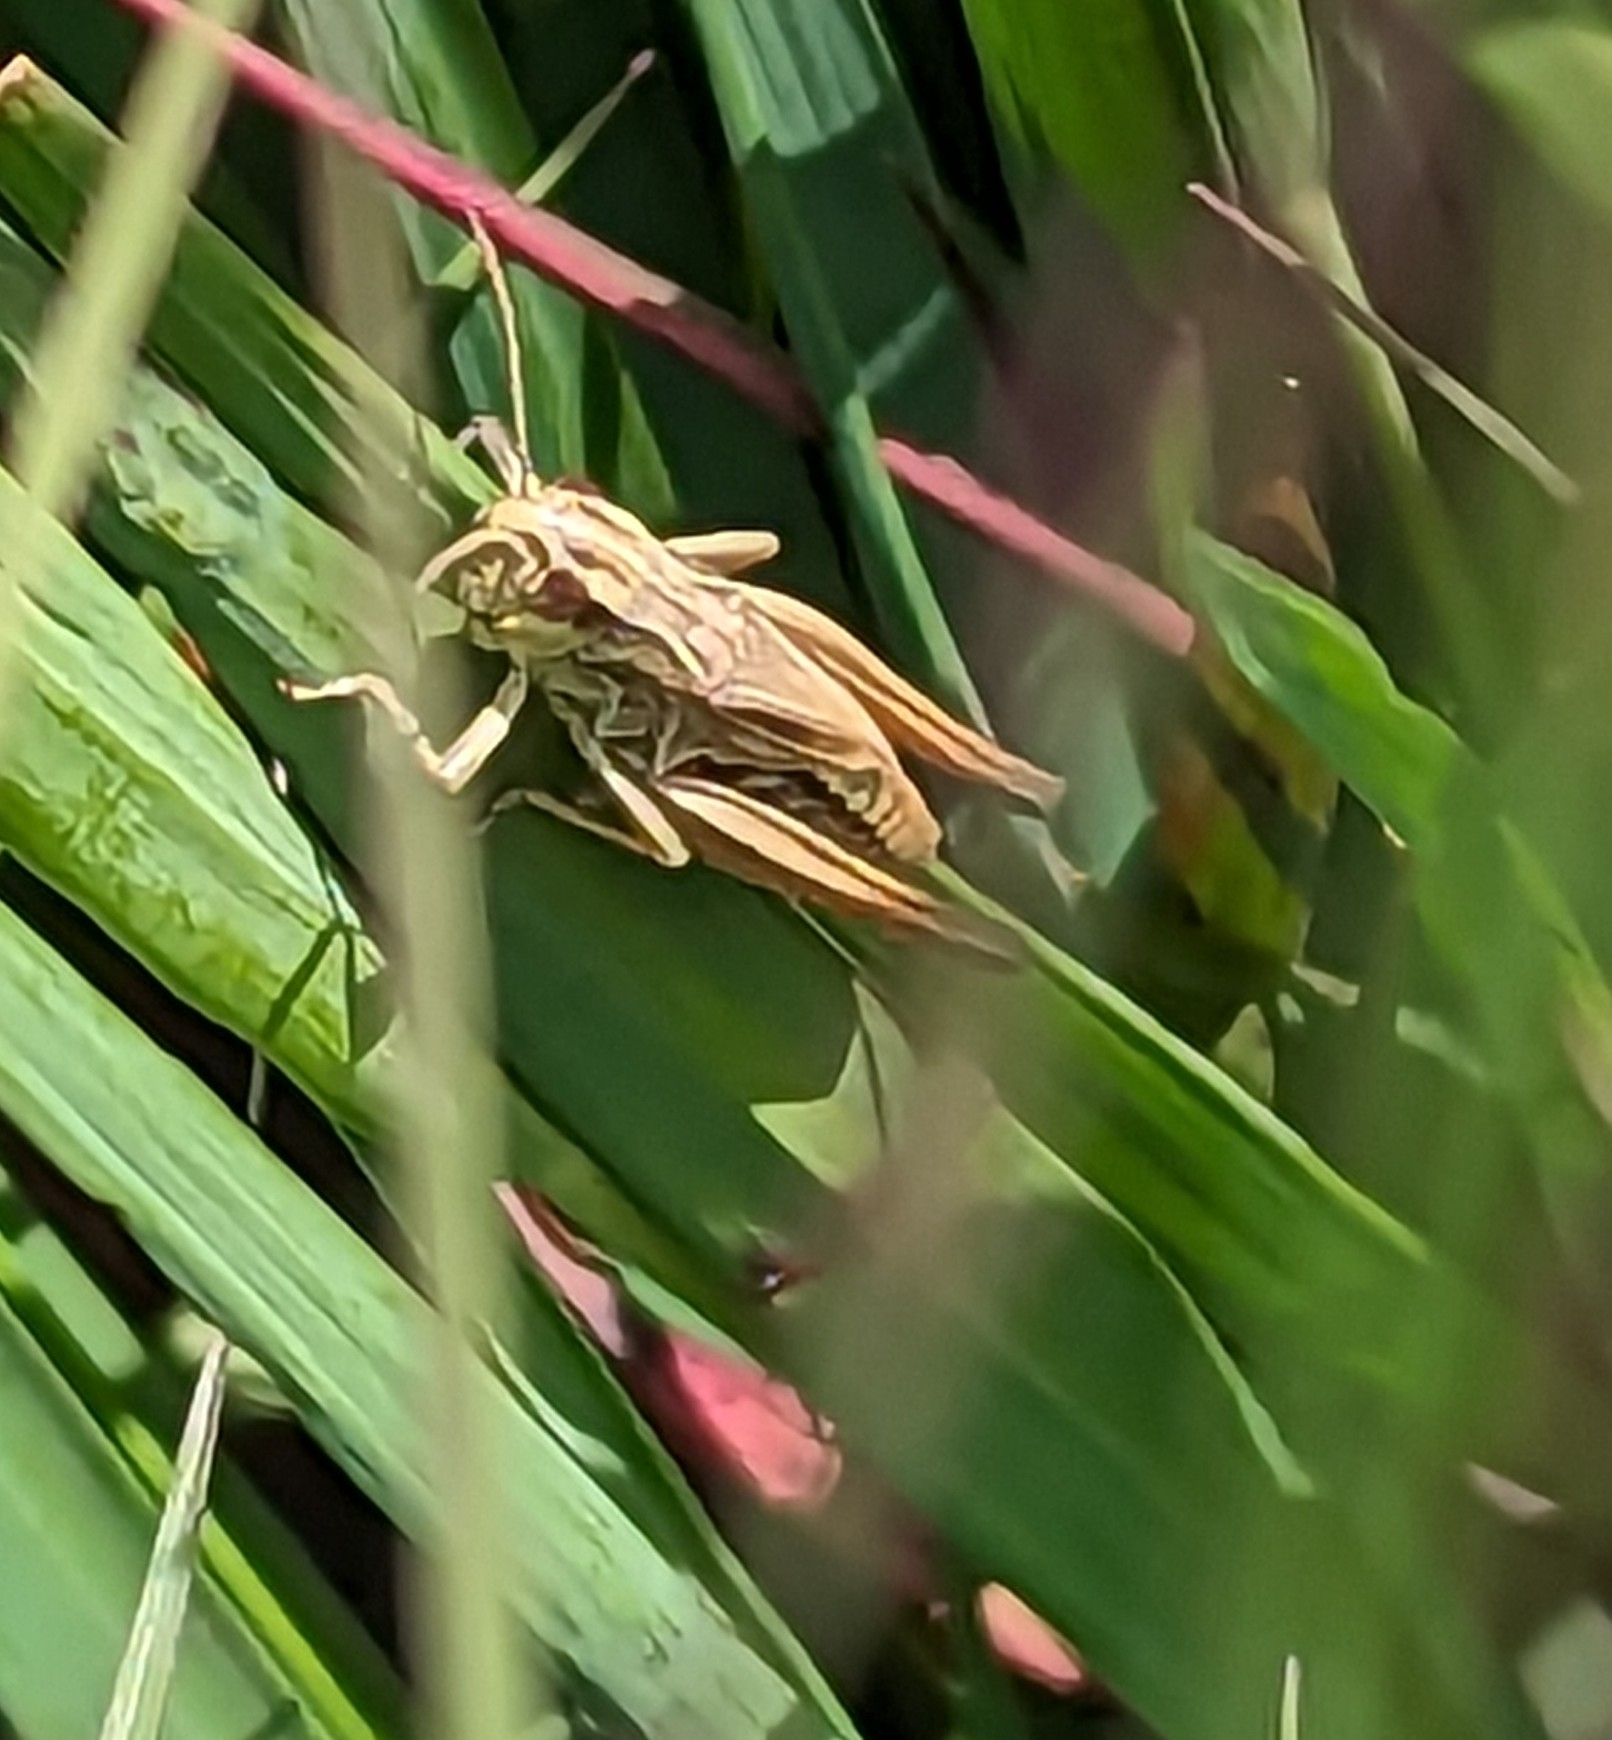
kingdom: Animalia
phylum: Arthropoda
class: Insecta
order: Orthoptera
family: Acrididae
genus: Pseudochorthippus
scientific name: Pseudochorthippus parallelus
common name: Meadow grasshopper
